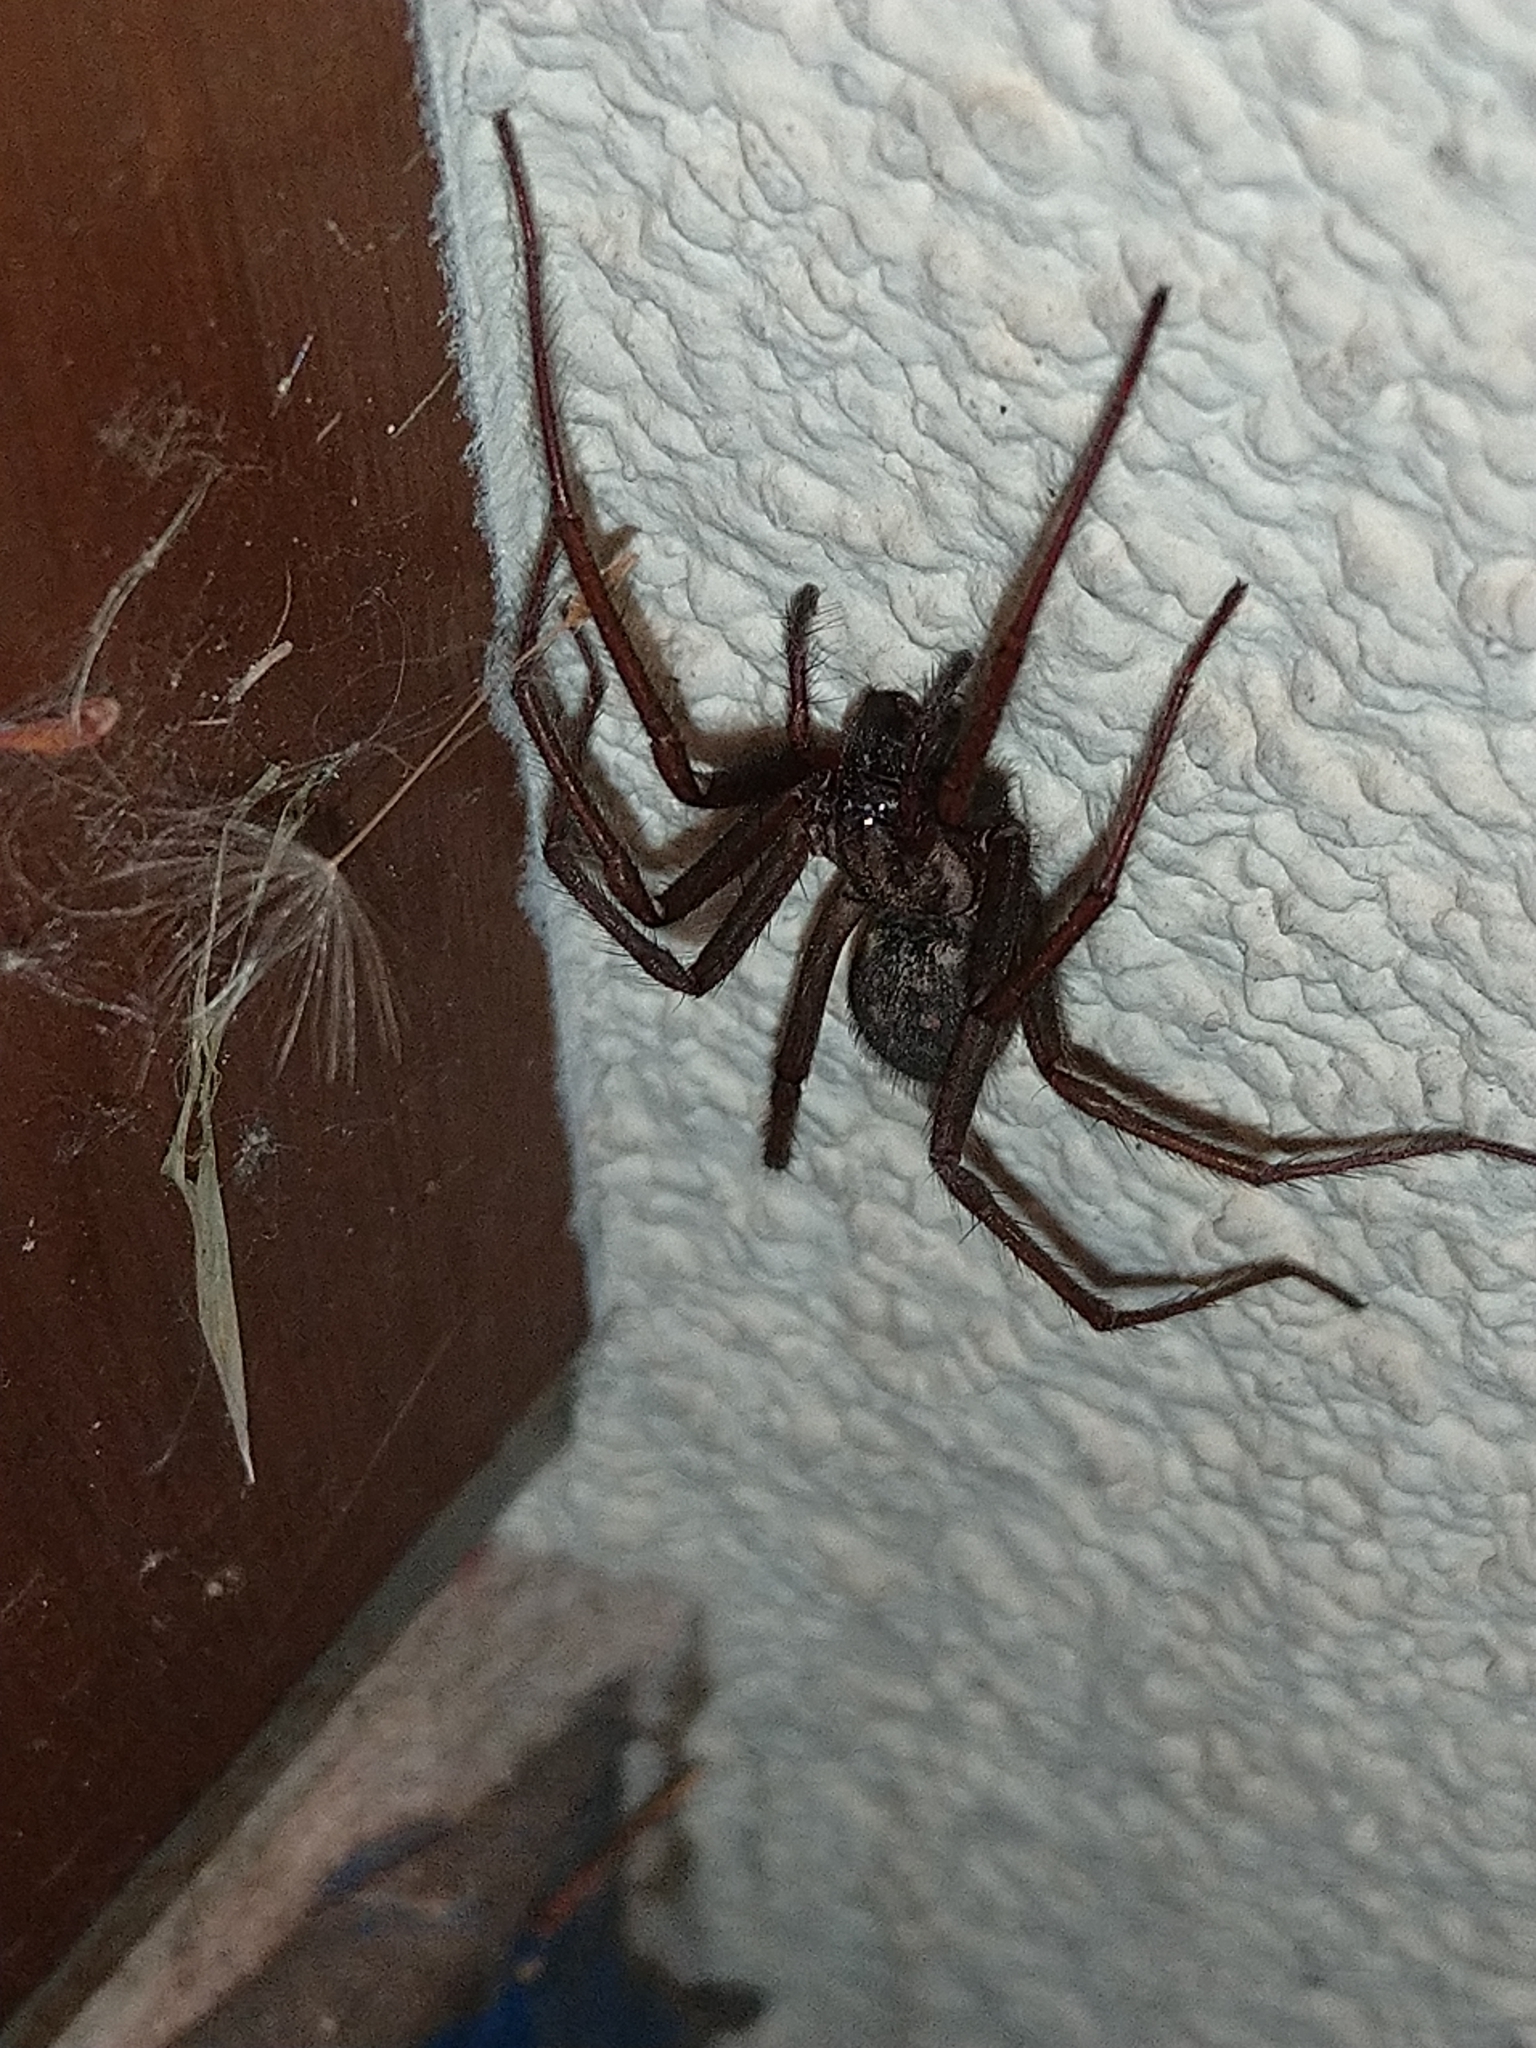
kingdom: Animalia
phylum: Arthropoda
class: Arachnida
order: Araneae
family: Agelenidae
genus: Eratigena
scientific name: Eratigena atrica
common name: Giant house spider
